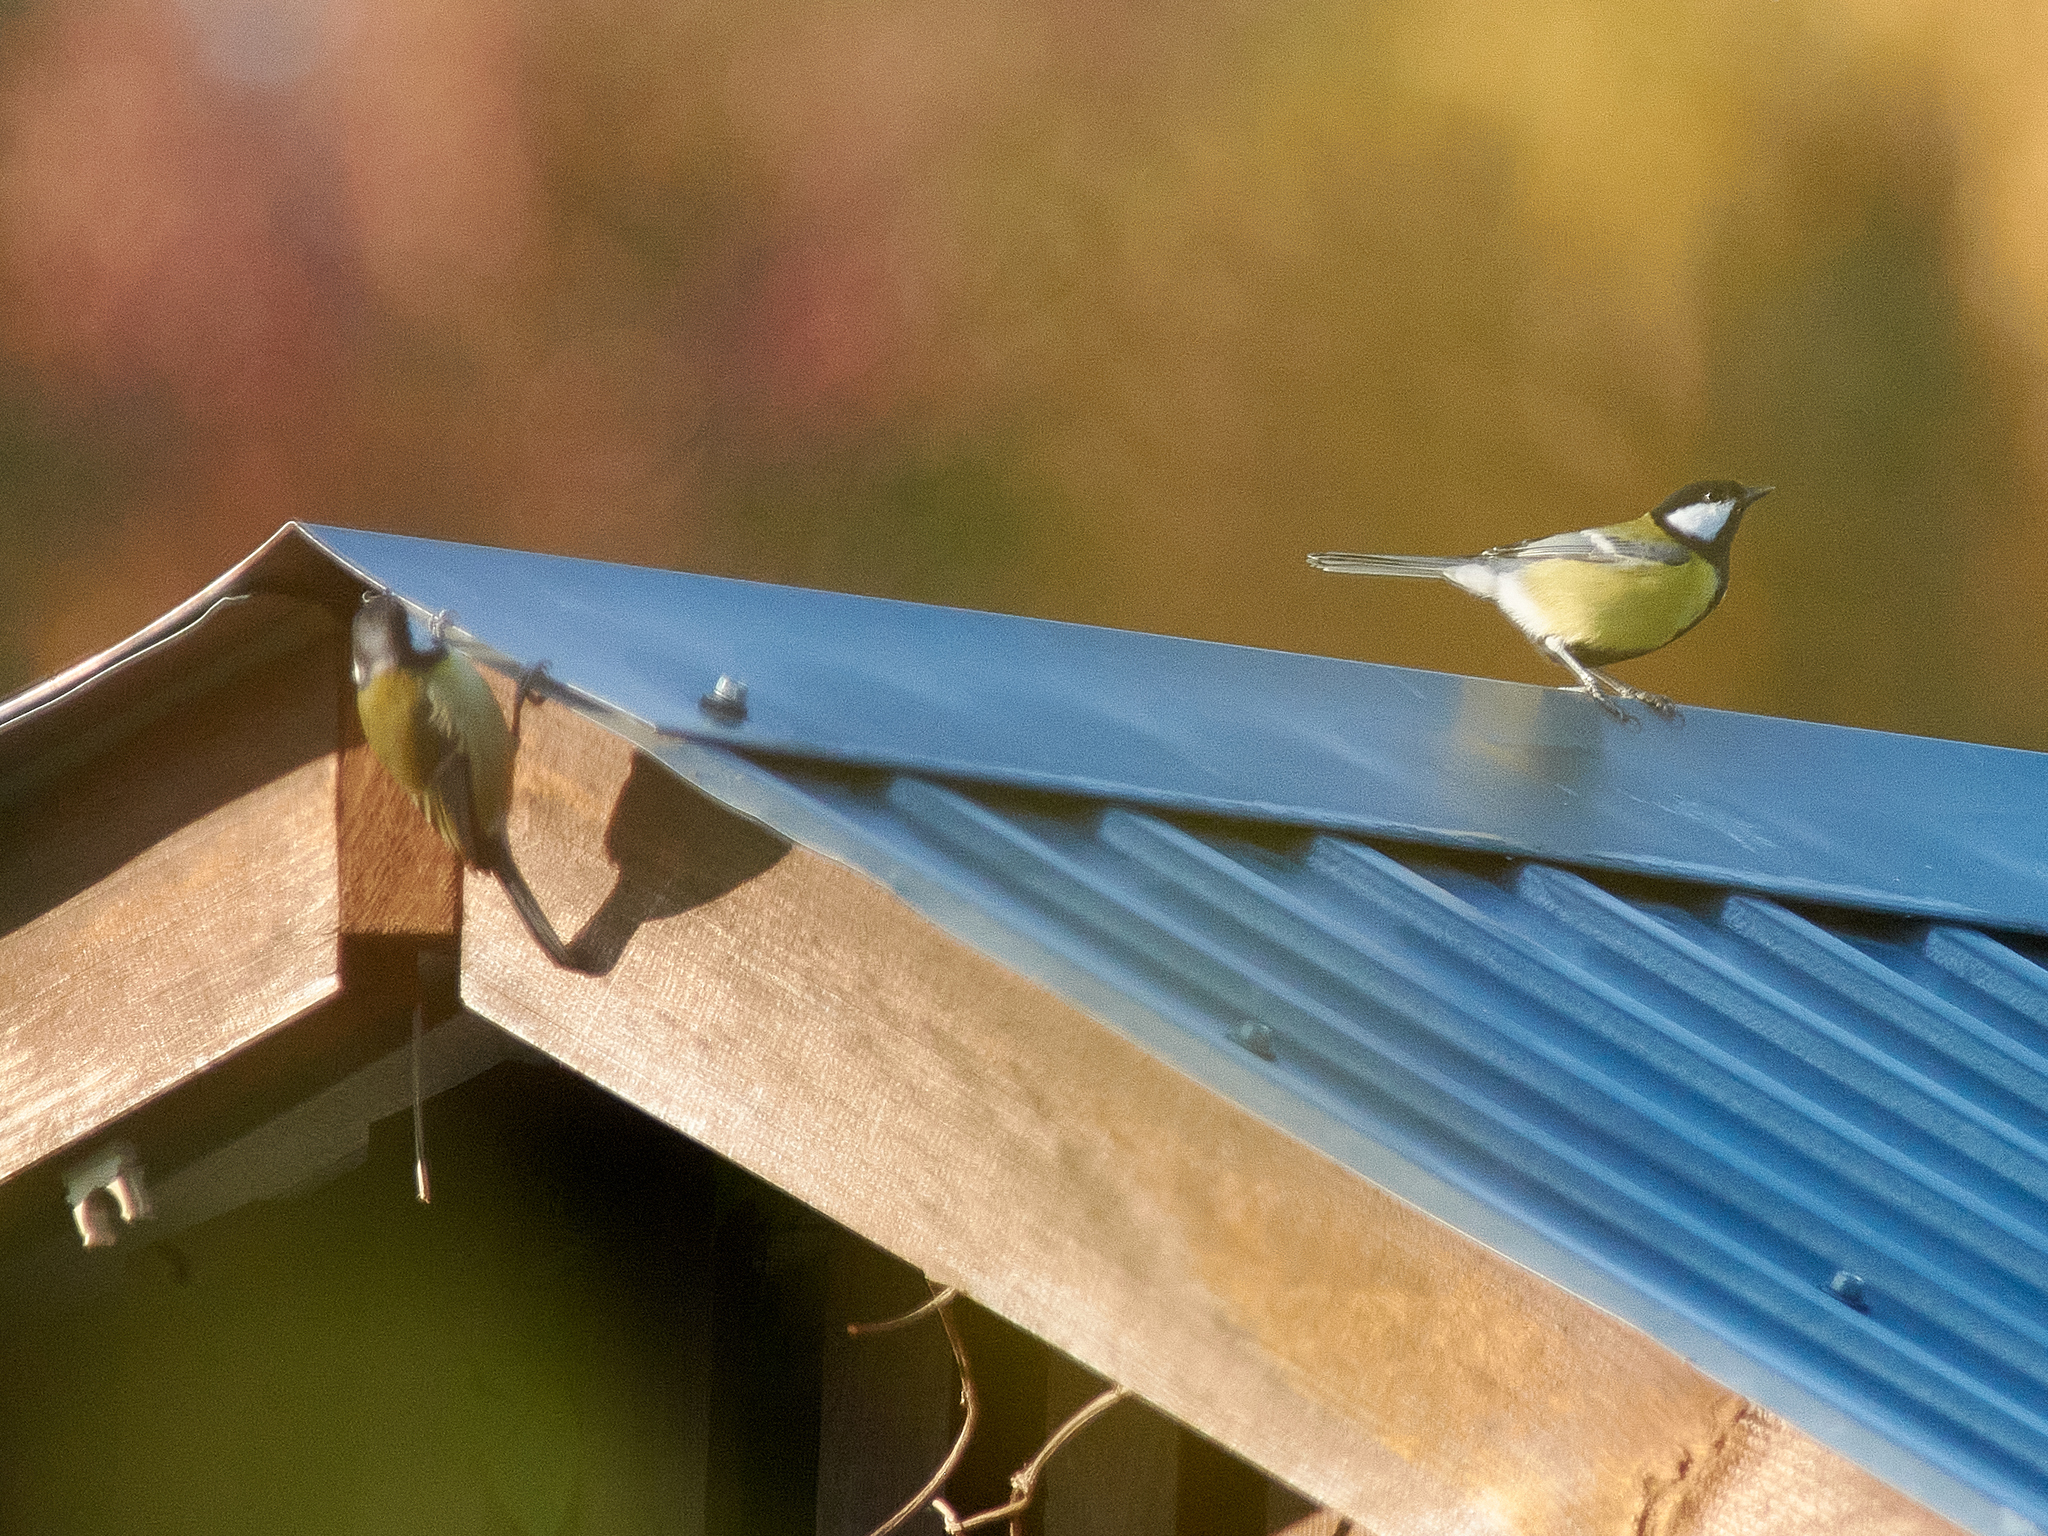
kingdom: Animalia
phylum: Chordata
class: Aves
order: Passeriformes
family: Paridae
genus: Parus
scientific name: Parus major
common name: Great tit
